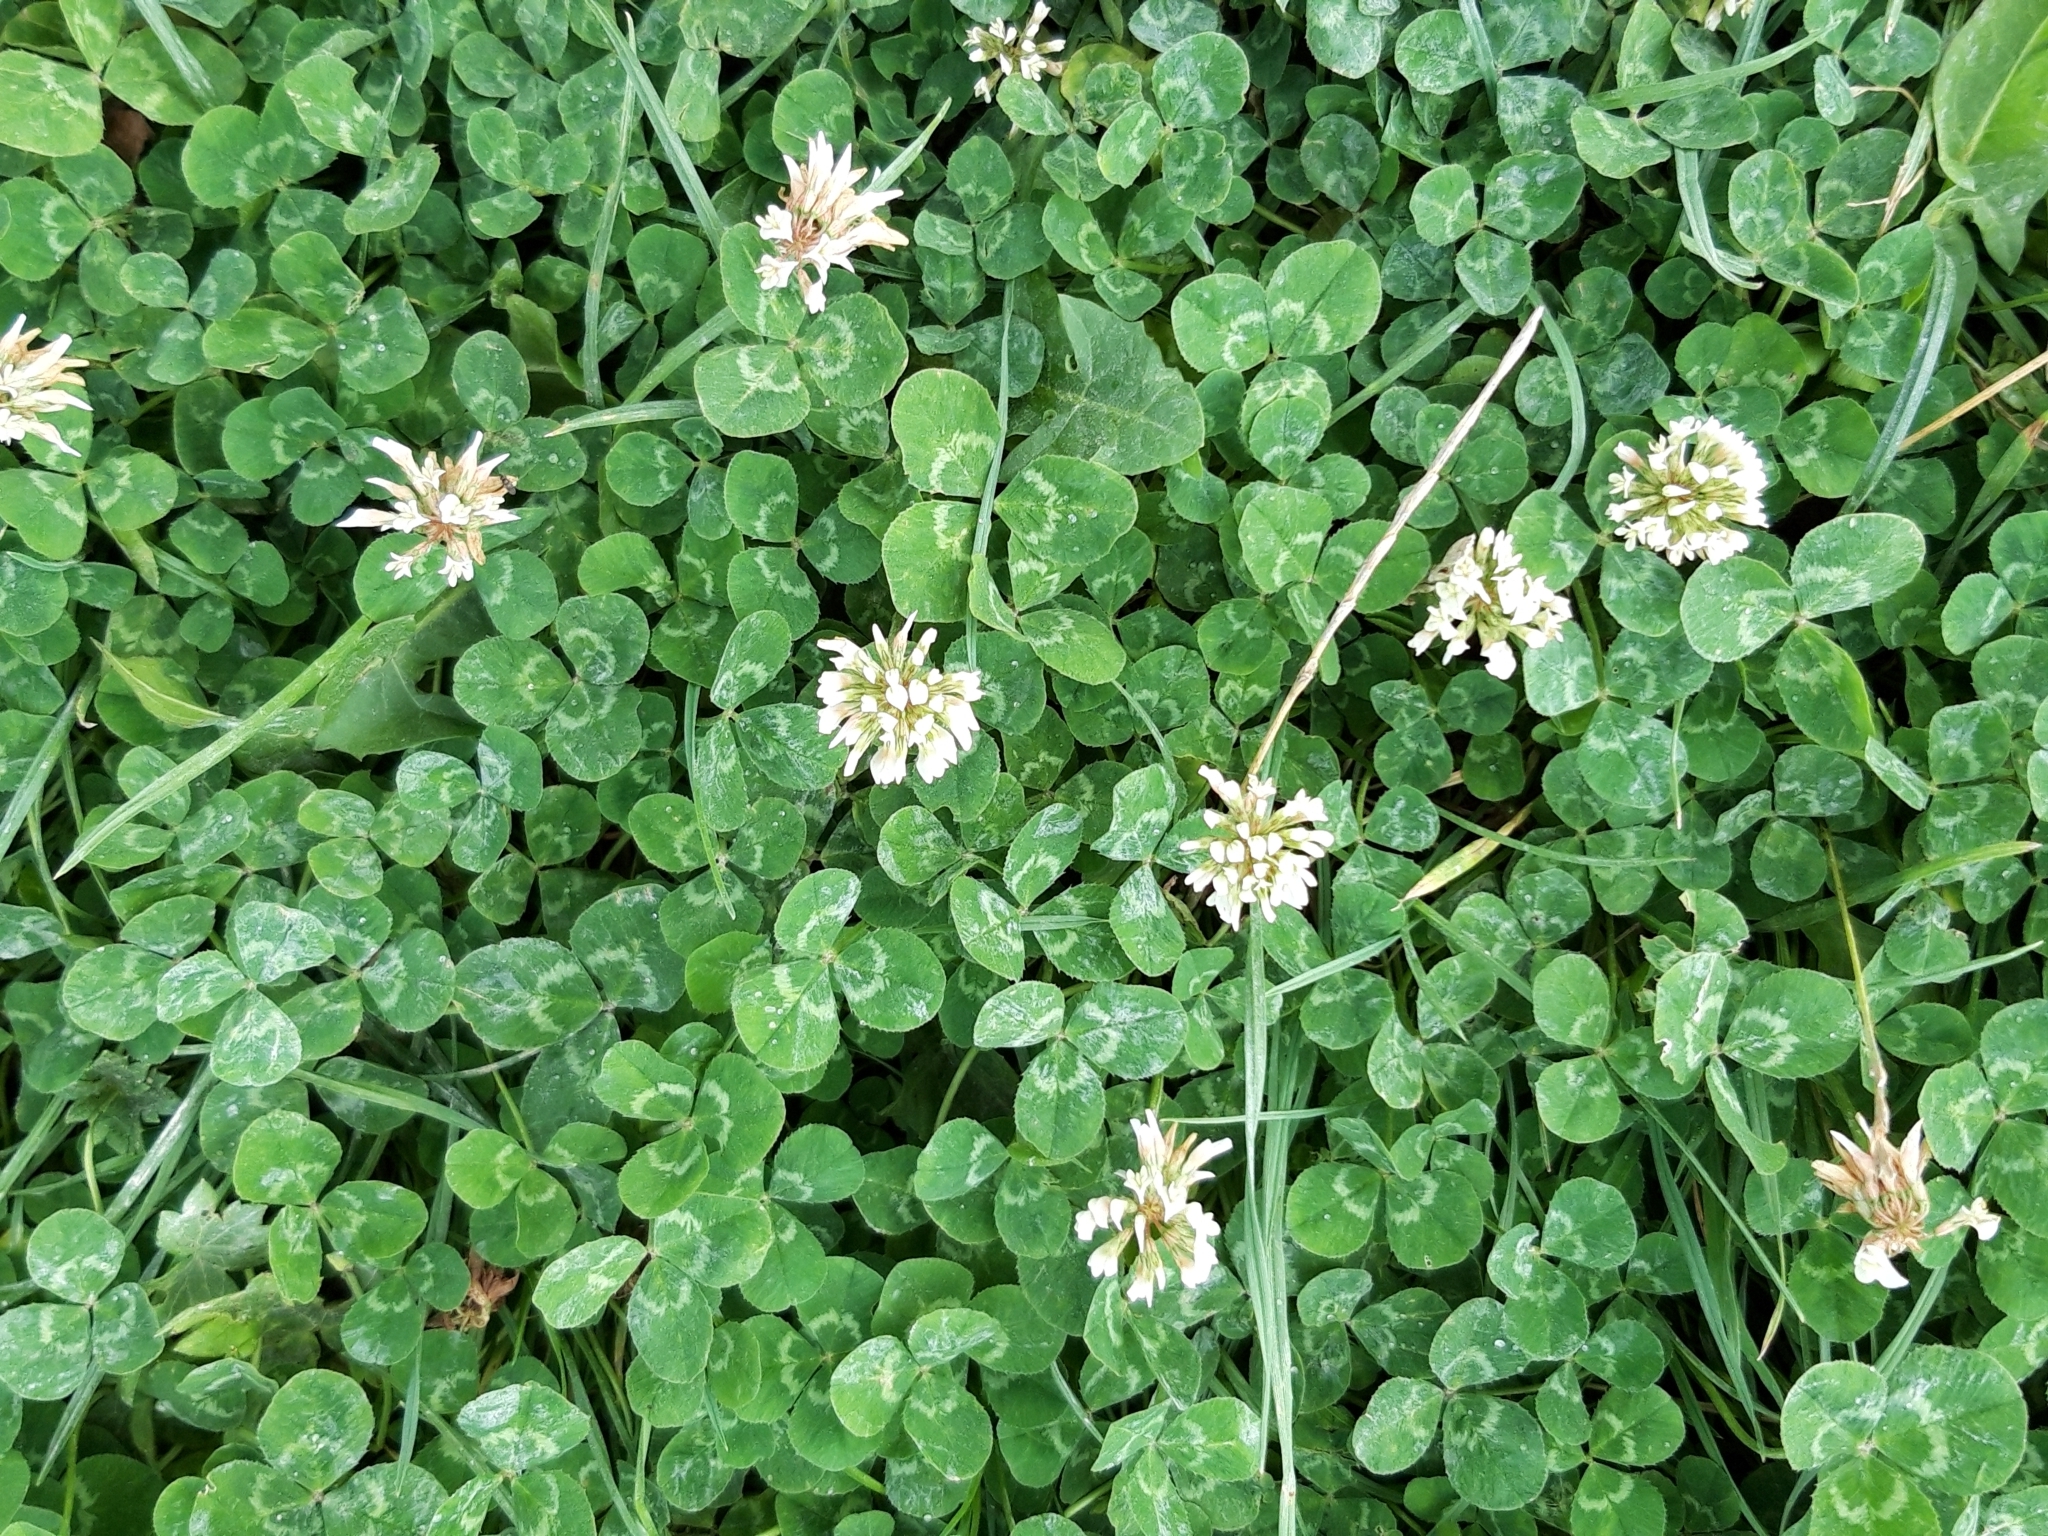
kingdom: Plantae
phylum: Tracheophyta
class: Magnoliopsida
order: Fabales
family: Fabaceae
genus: Trifolium
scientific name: Trifolium repens
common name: White clover
